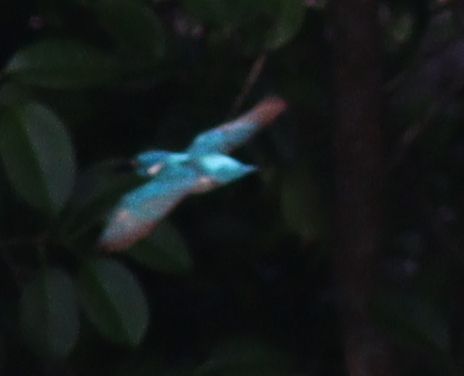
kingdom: Animalia
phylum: Chordata
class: Aves
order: Coraciiformes
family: Alcedinidae
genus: Alcedo
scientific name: Alcedo coerulescens
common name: Cerulean kingfisher
